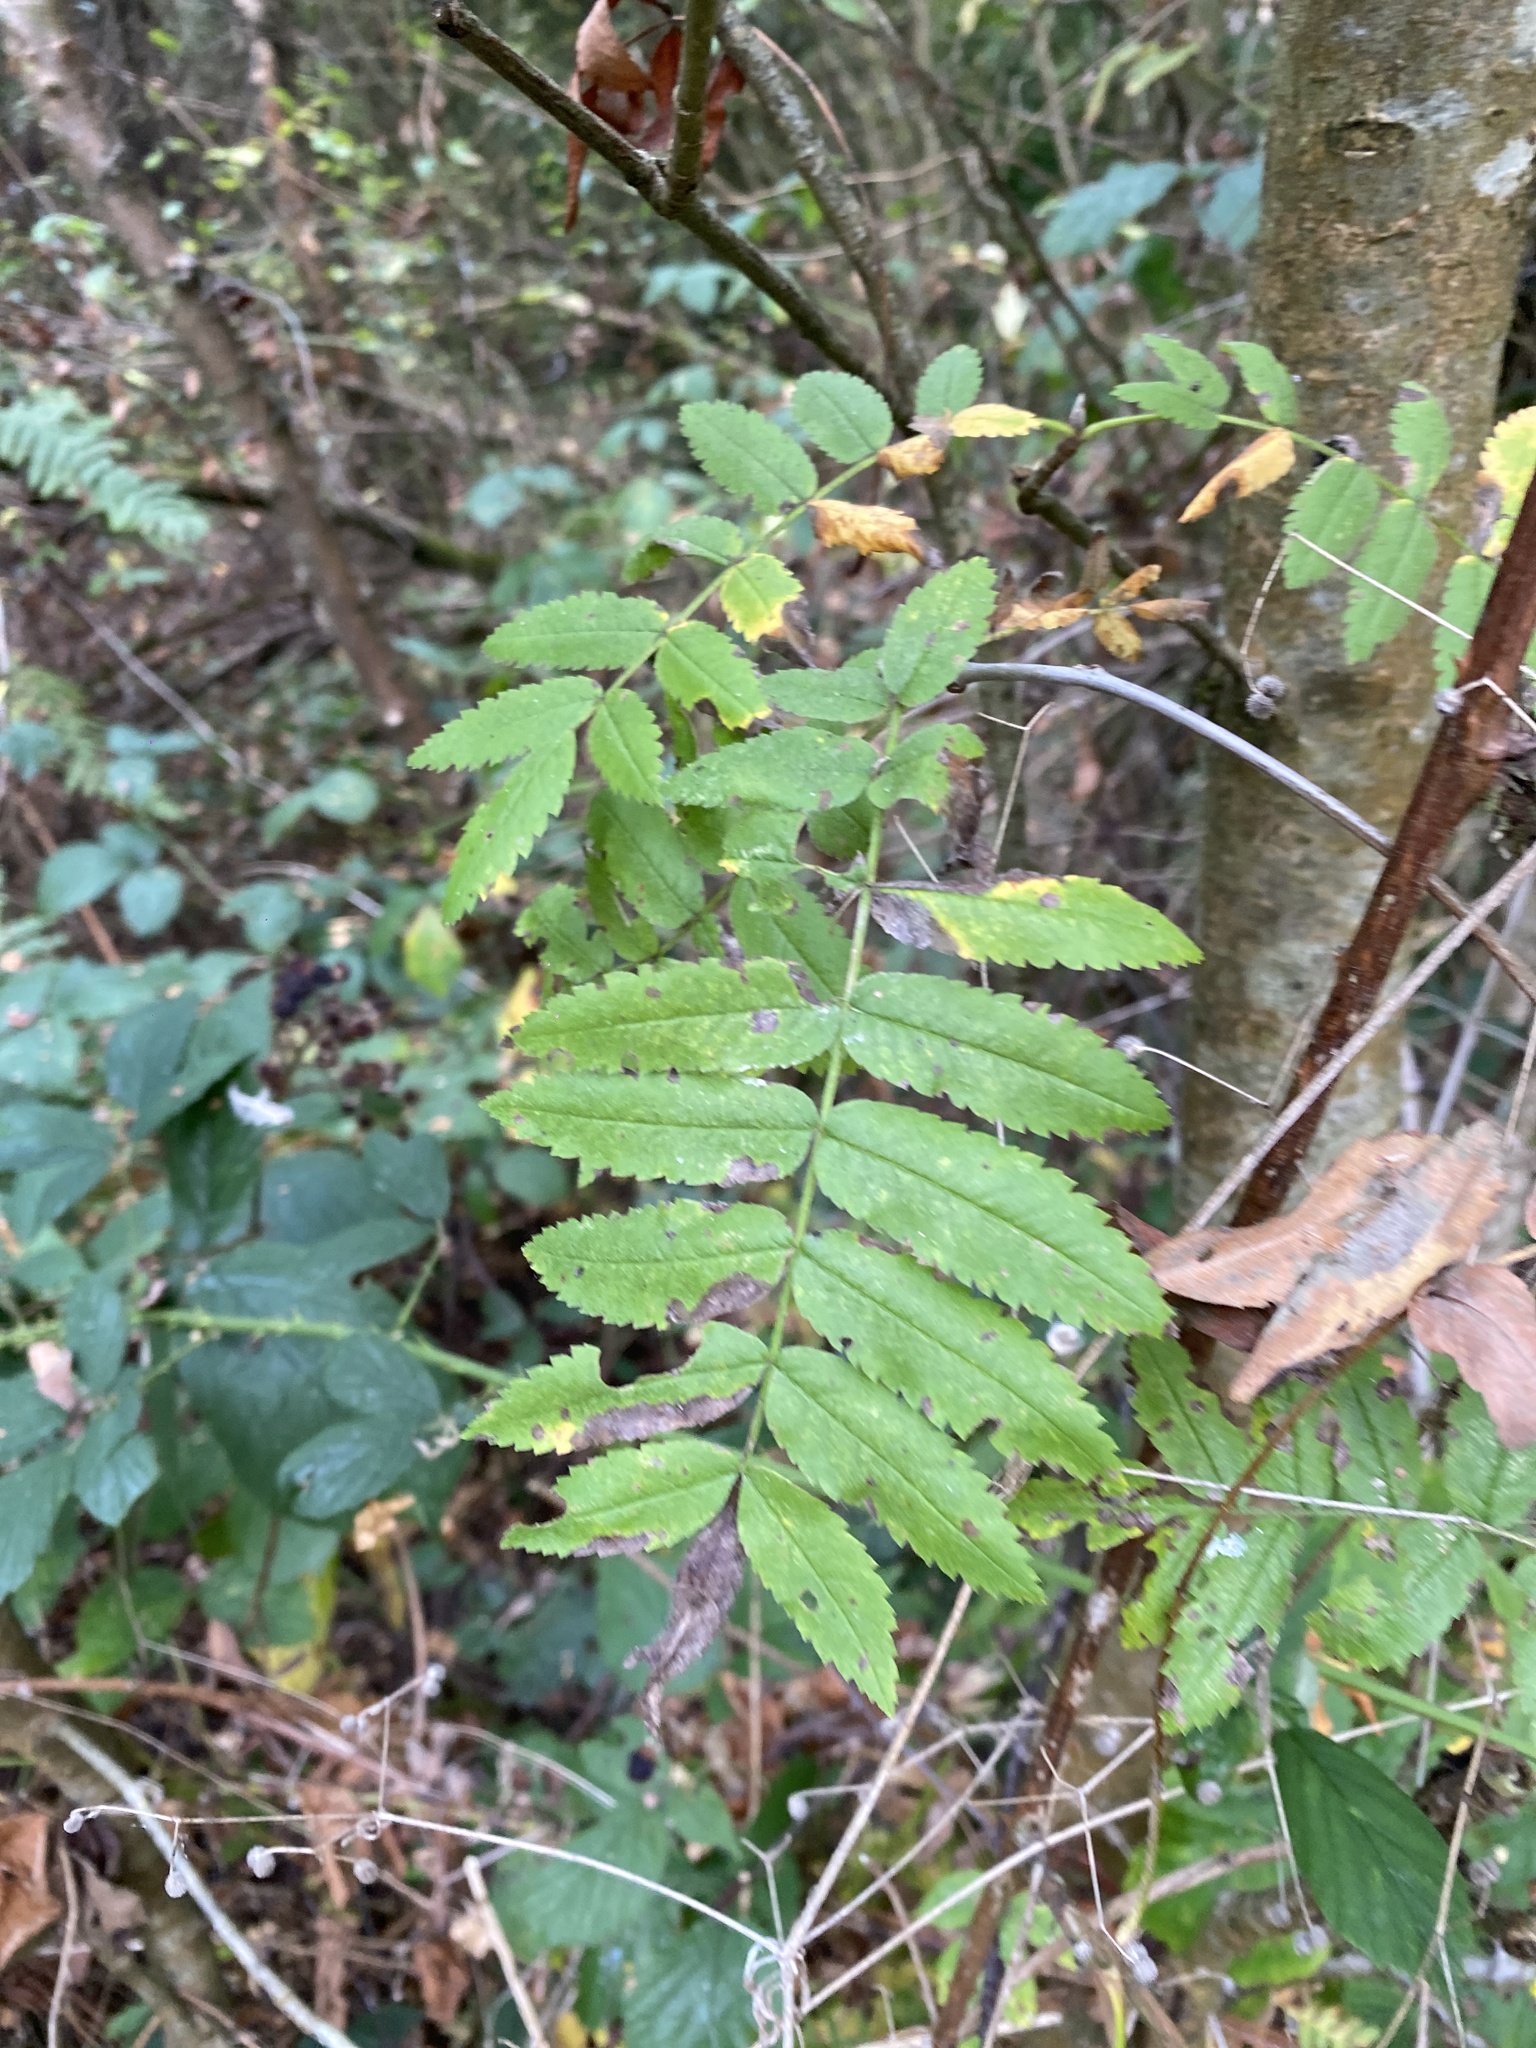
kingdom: Plantae
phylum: Tracheophyta
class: Magnoliopsida
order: Rosales
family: Rosaceae
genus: Sorbus
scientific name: Sorbus aucuparia
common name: Rowan
